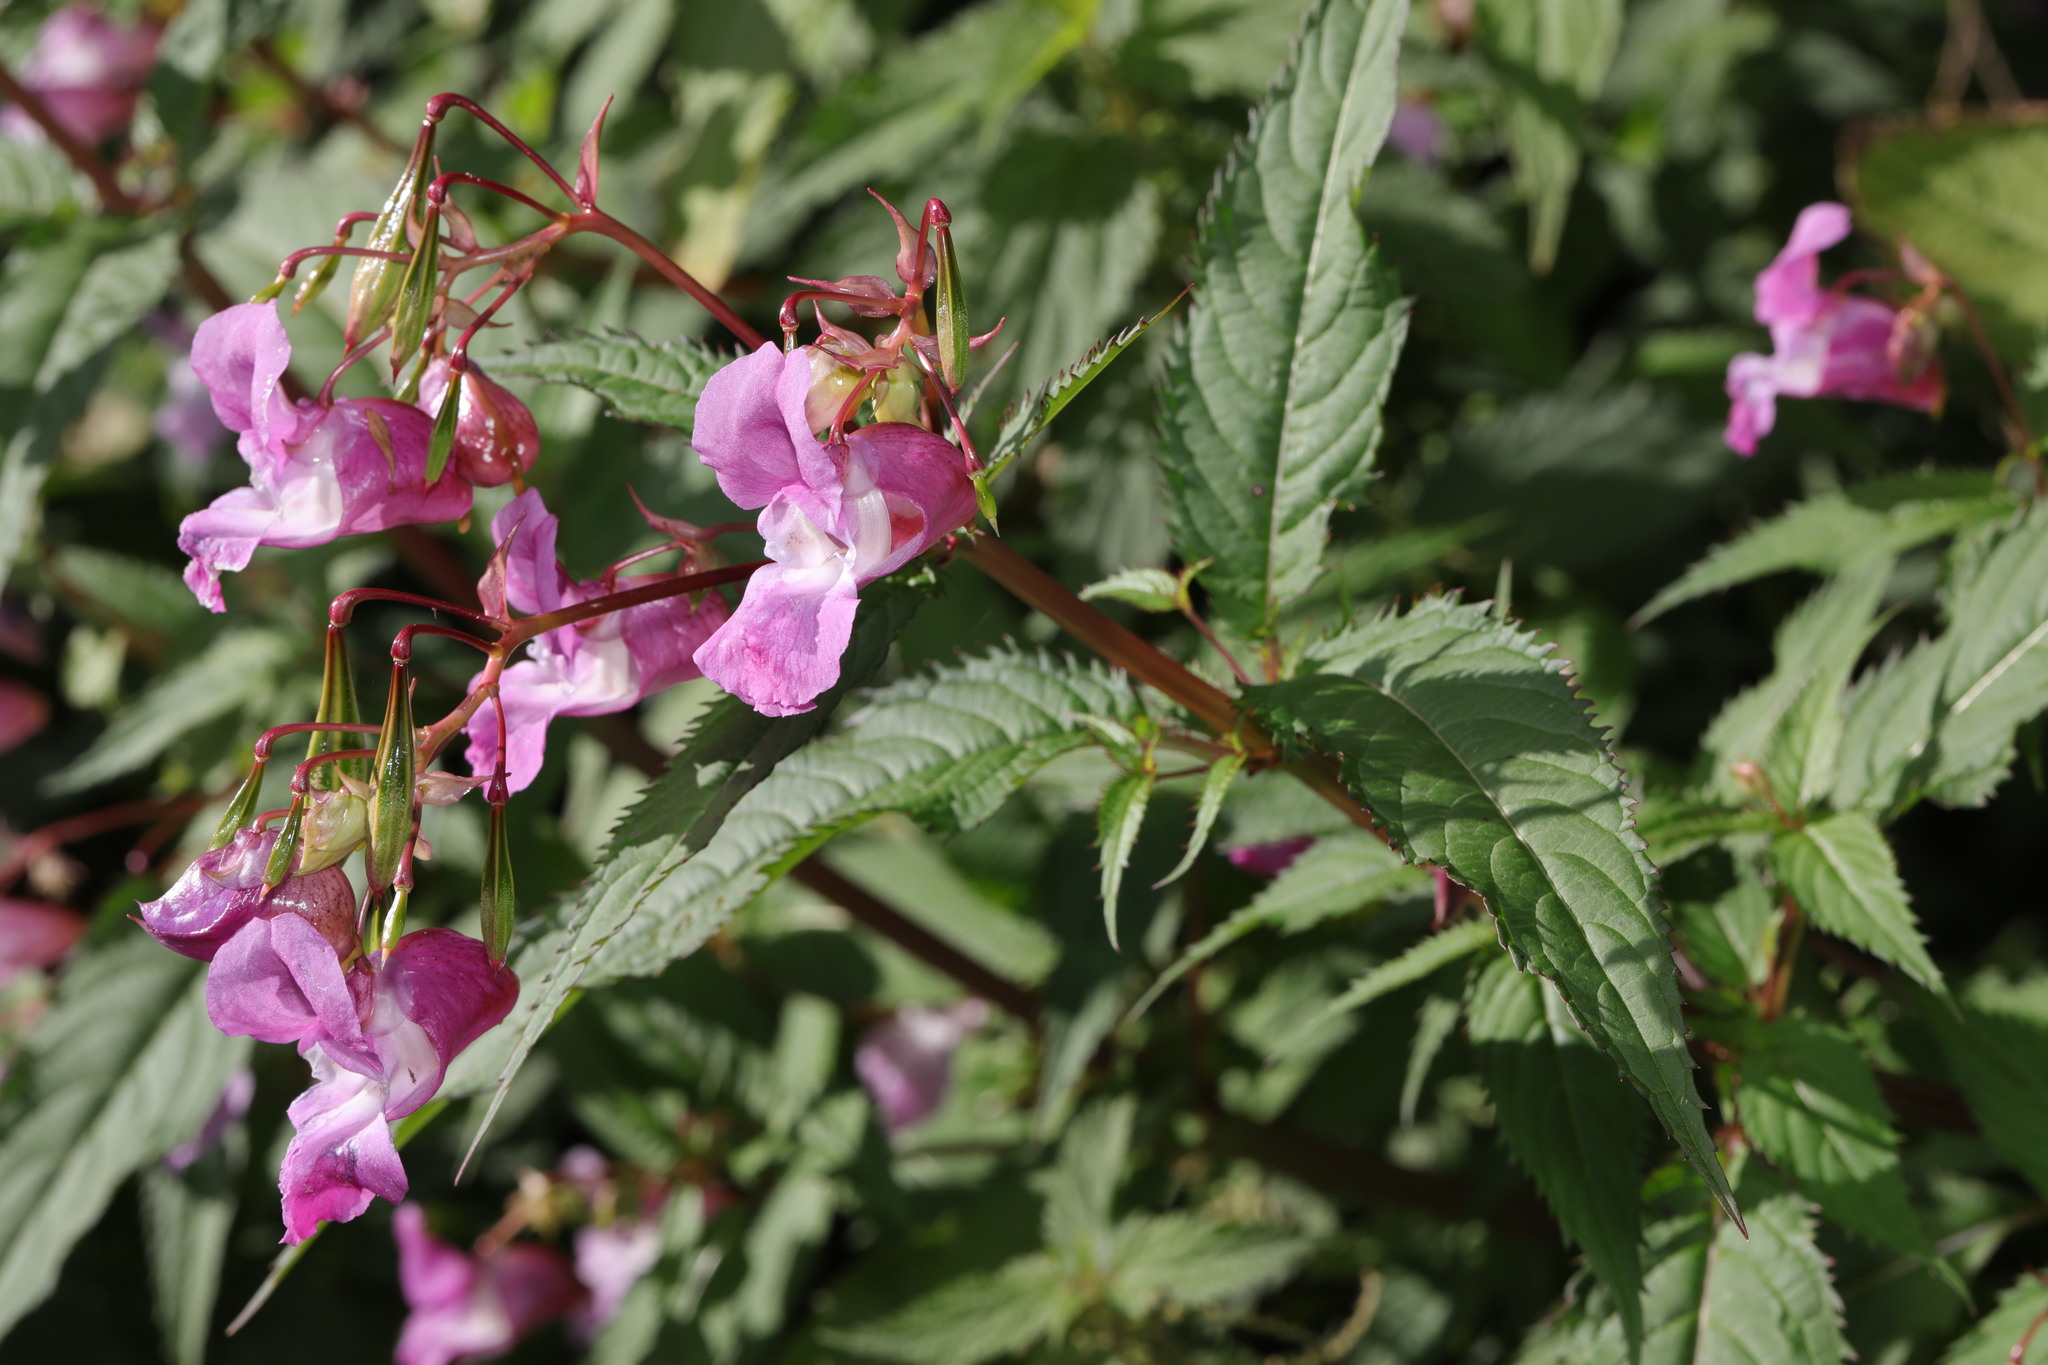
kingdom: Plantae
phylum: Tracheophyta
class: Magnoliopsida
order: Ericales
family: Balsaminaceae
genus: Impatiens
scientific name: Impatiens glandulifera
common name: Himalayan balsam
